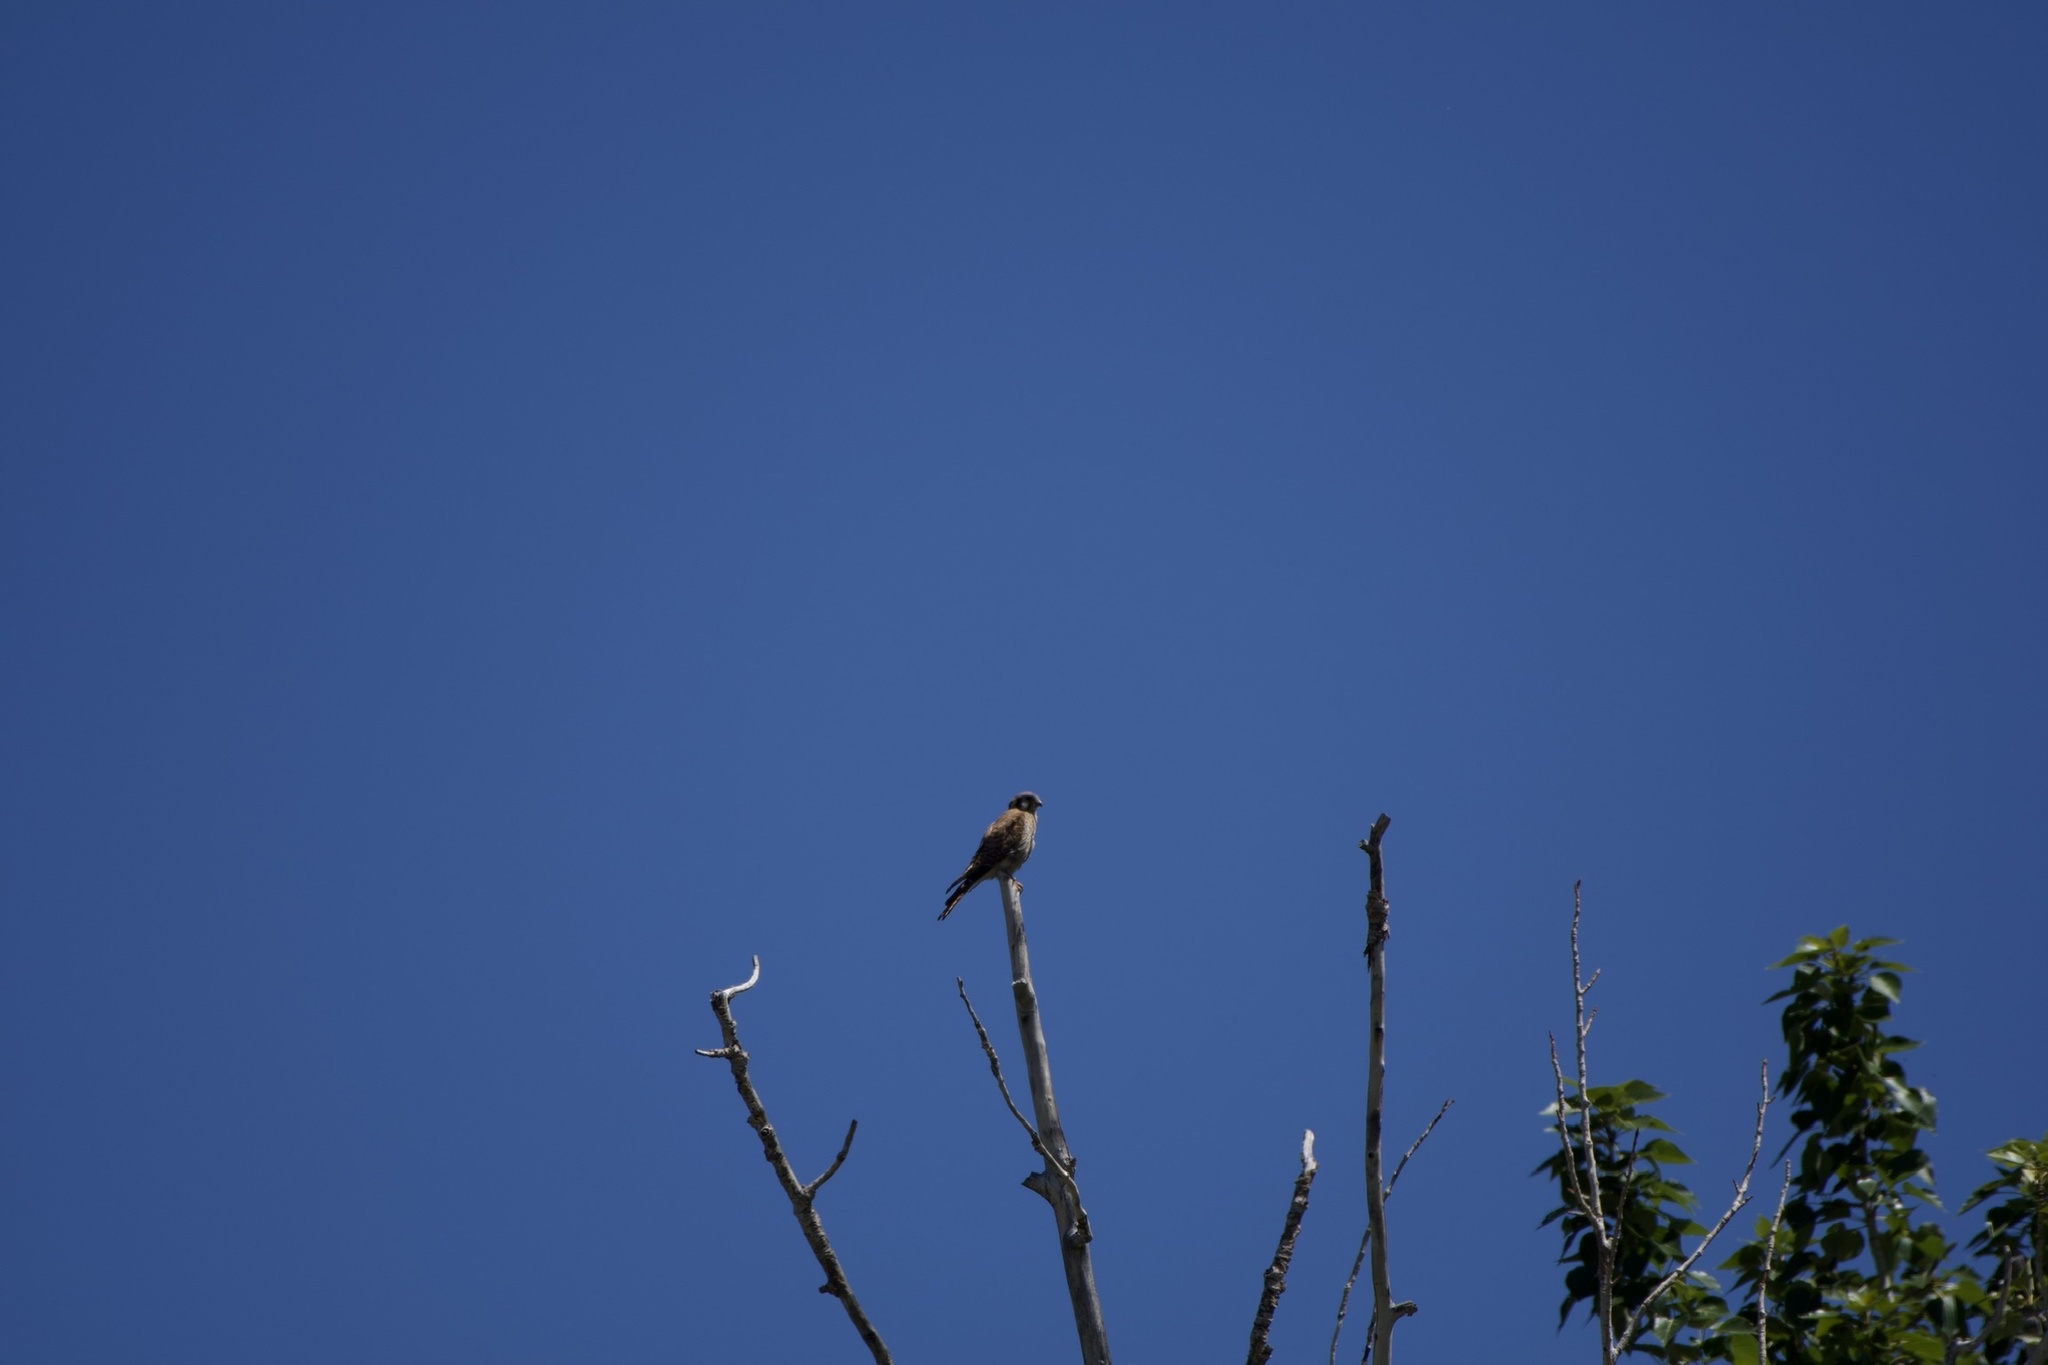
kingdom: Animalia
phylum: Chordata
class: Aves
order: Falconiformes
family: Falconidae
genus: Falco
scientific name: Falco sparverius
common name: American kestrel
